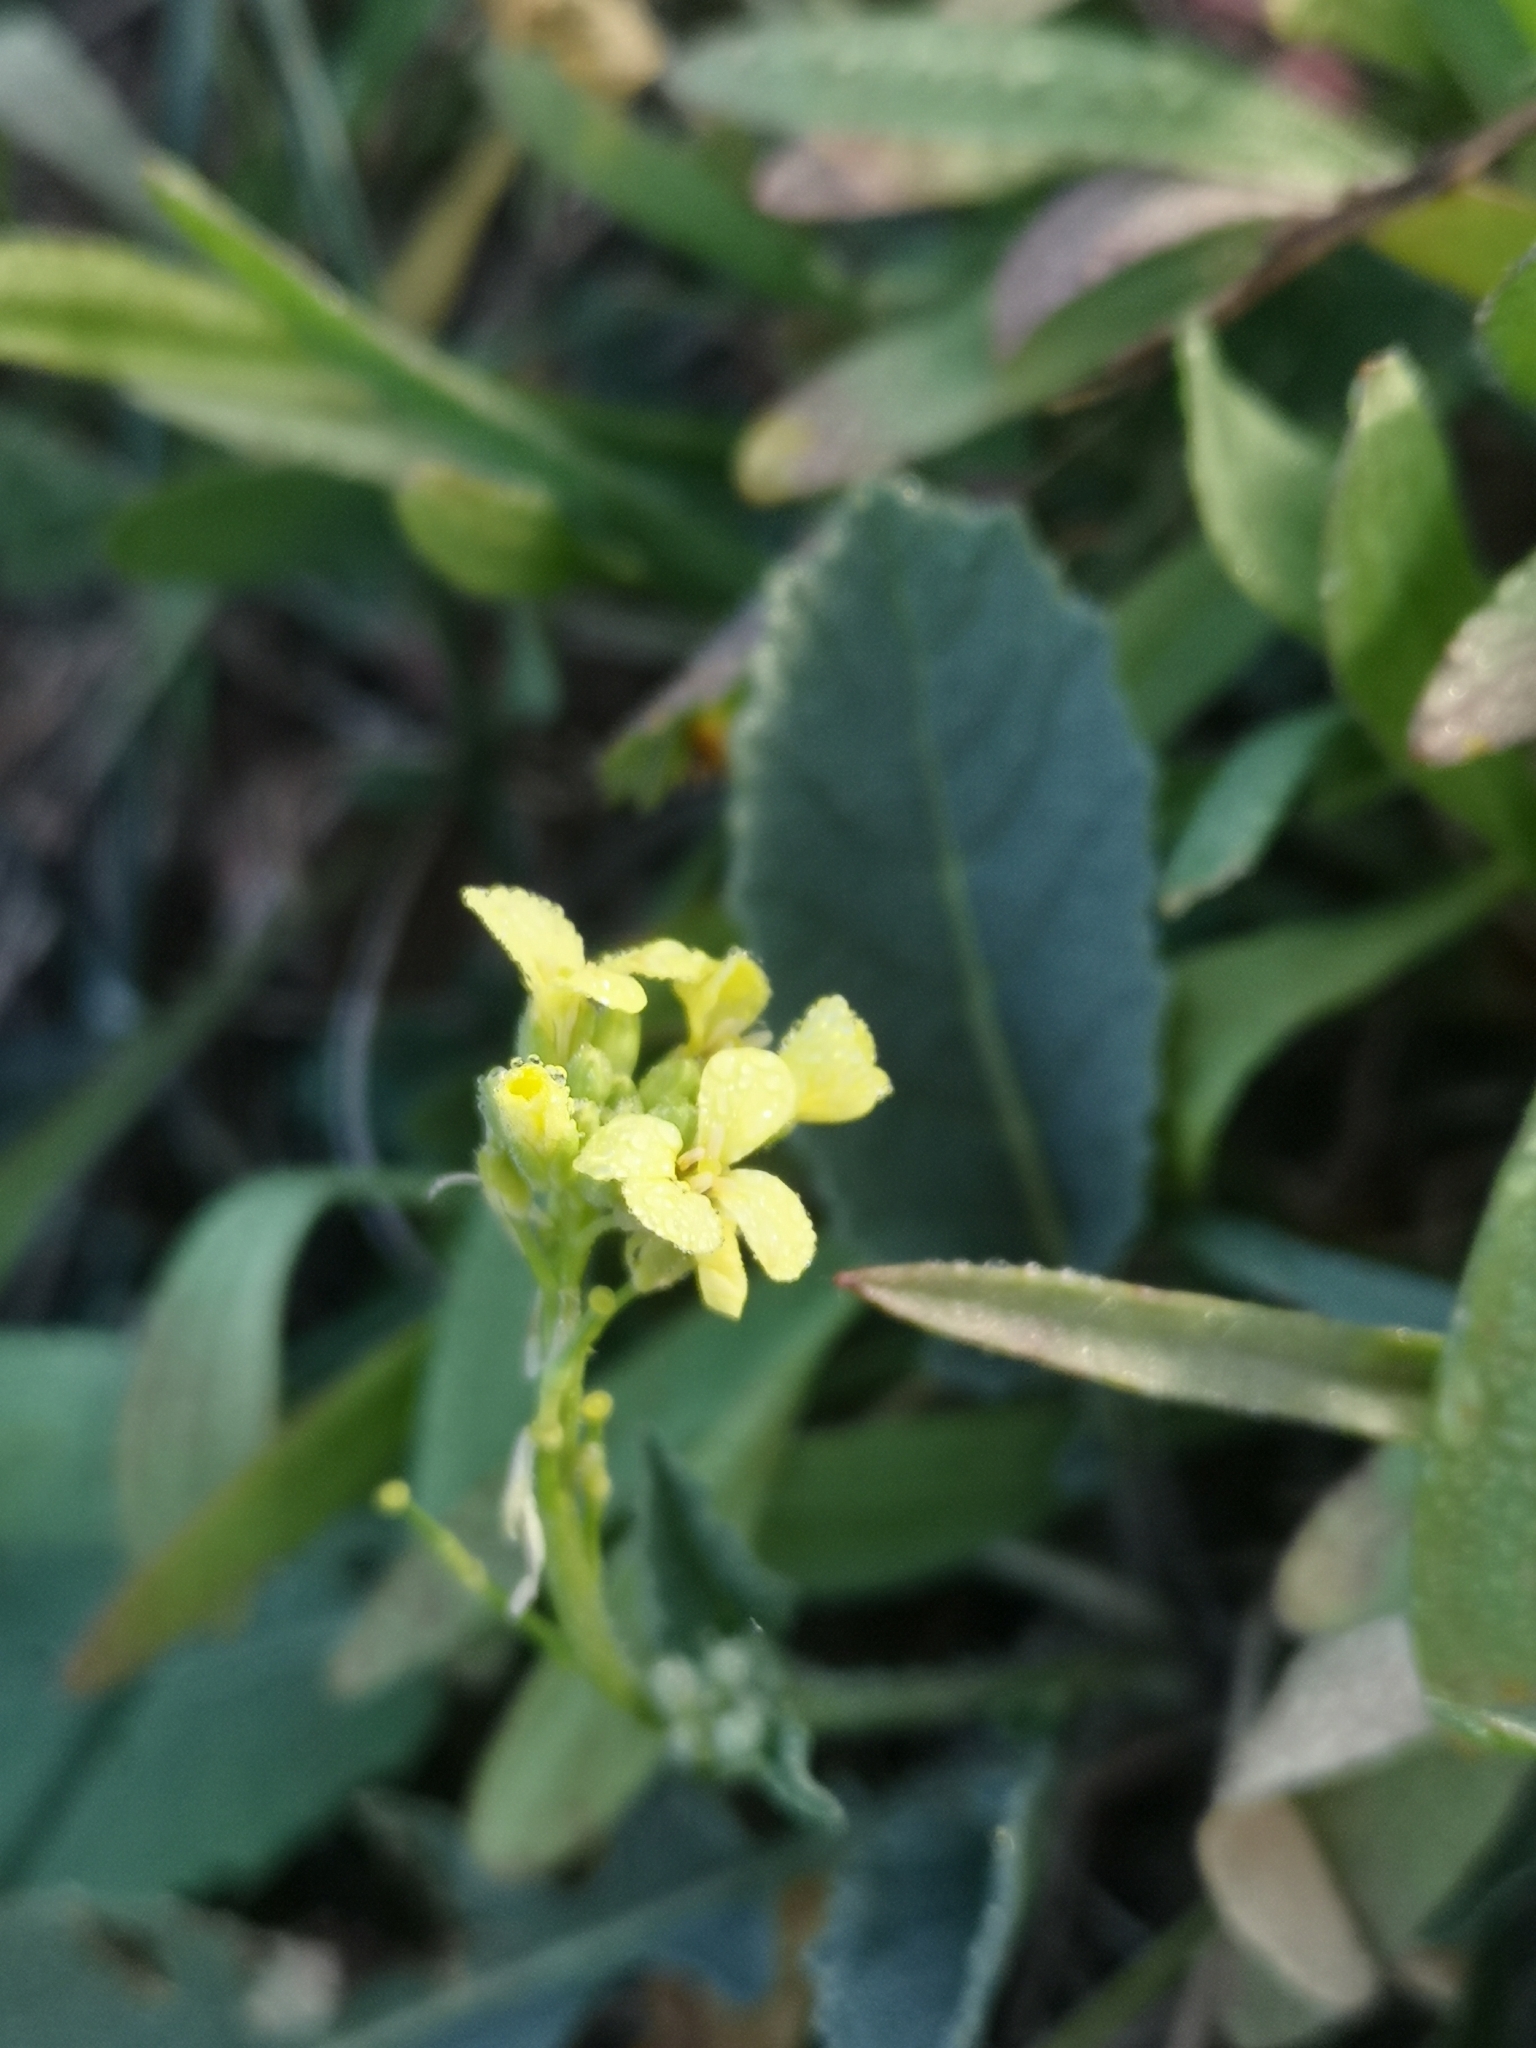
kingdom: Plantae
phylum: Tracheophyta
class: Magnoliopsida
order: Brassicales
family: Brassicaceae
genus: Hirschfeldia
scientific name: Hirschfeldia incana
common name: Hoary mustard
